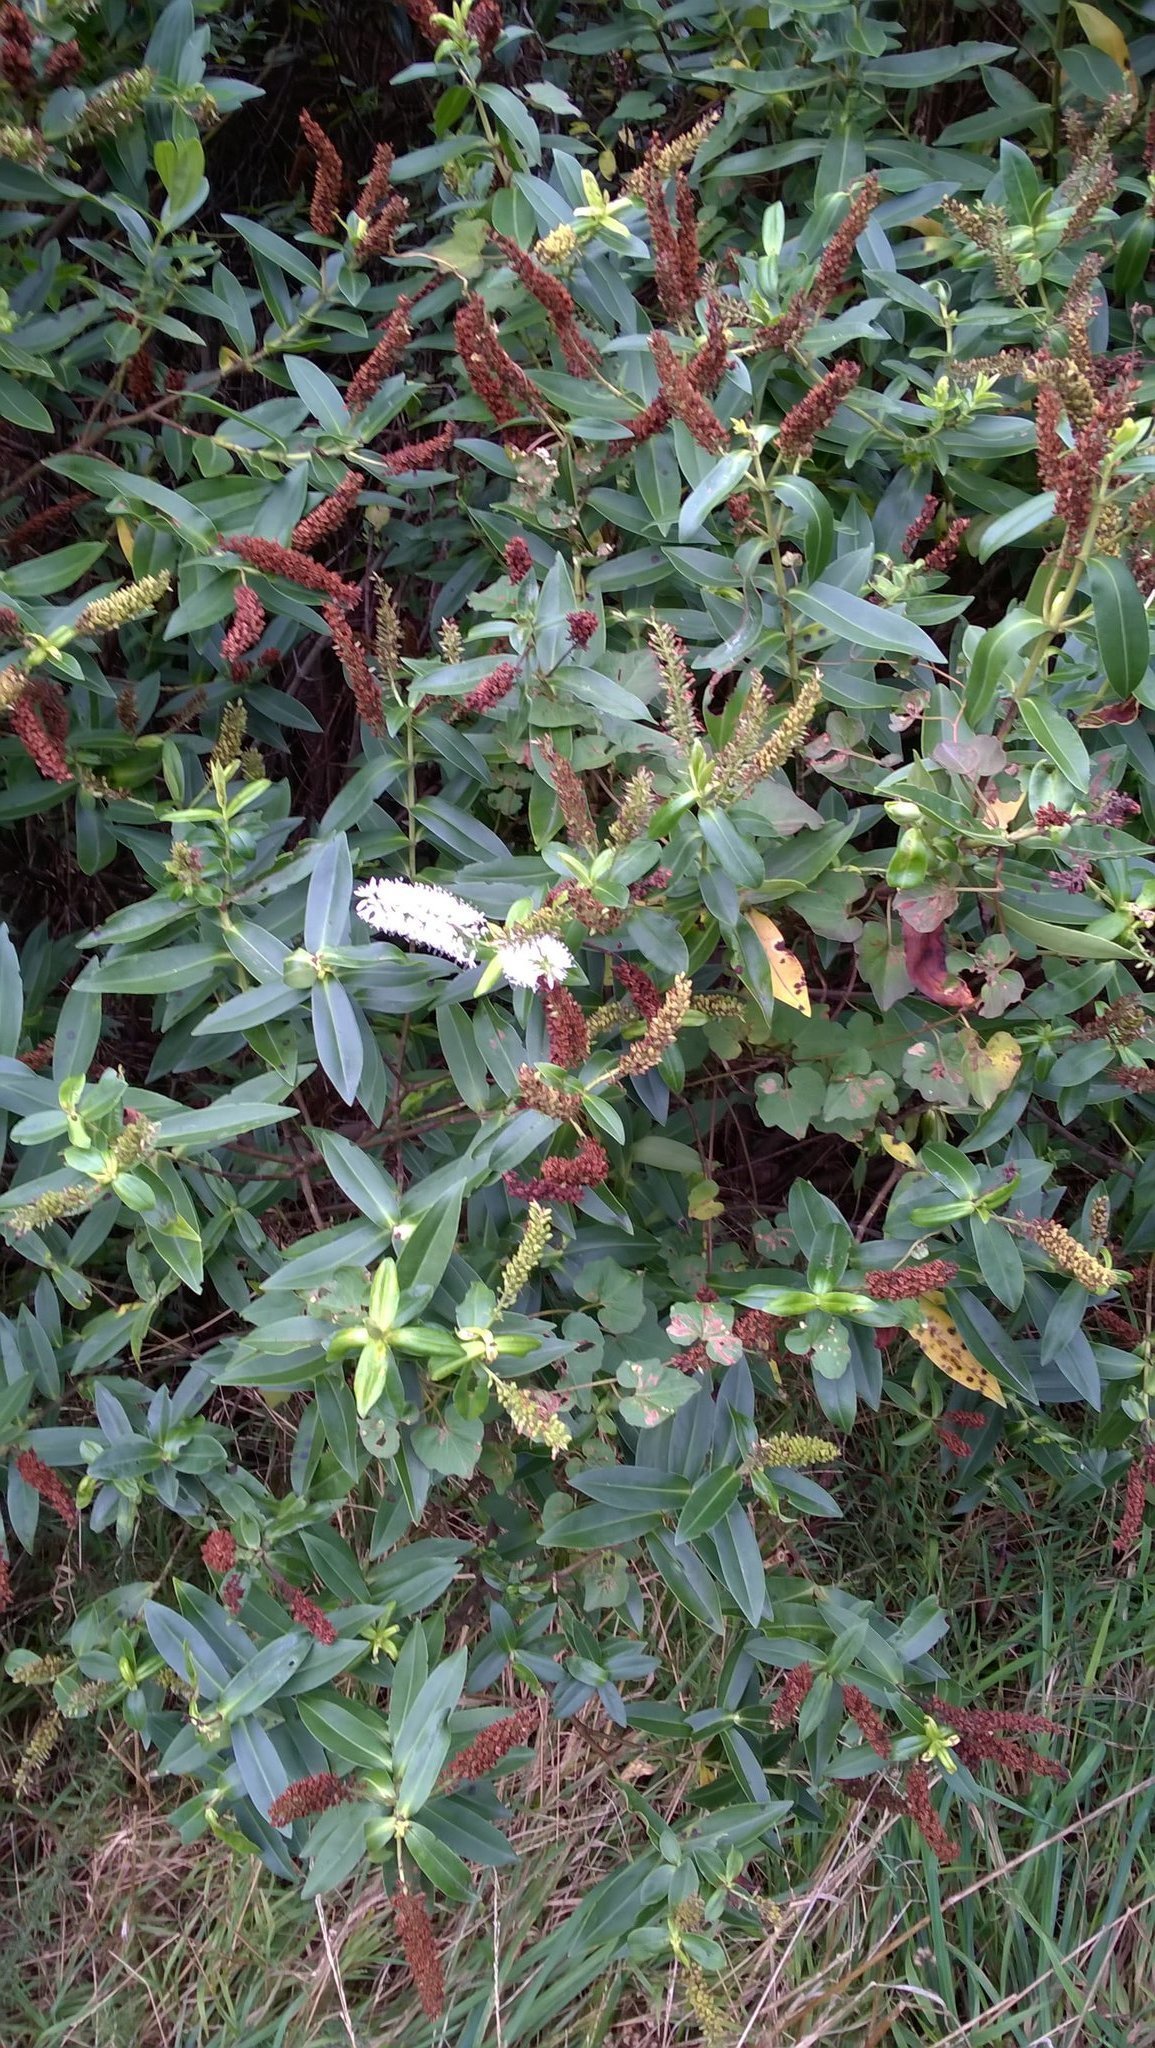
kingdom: Plantae
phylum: Tracheophyta
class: Magnoliopsida
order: Lamiales
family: Plantaginaceae
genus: Veronica
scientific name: Veronica stricta
